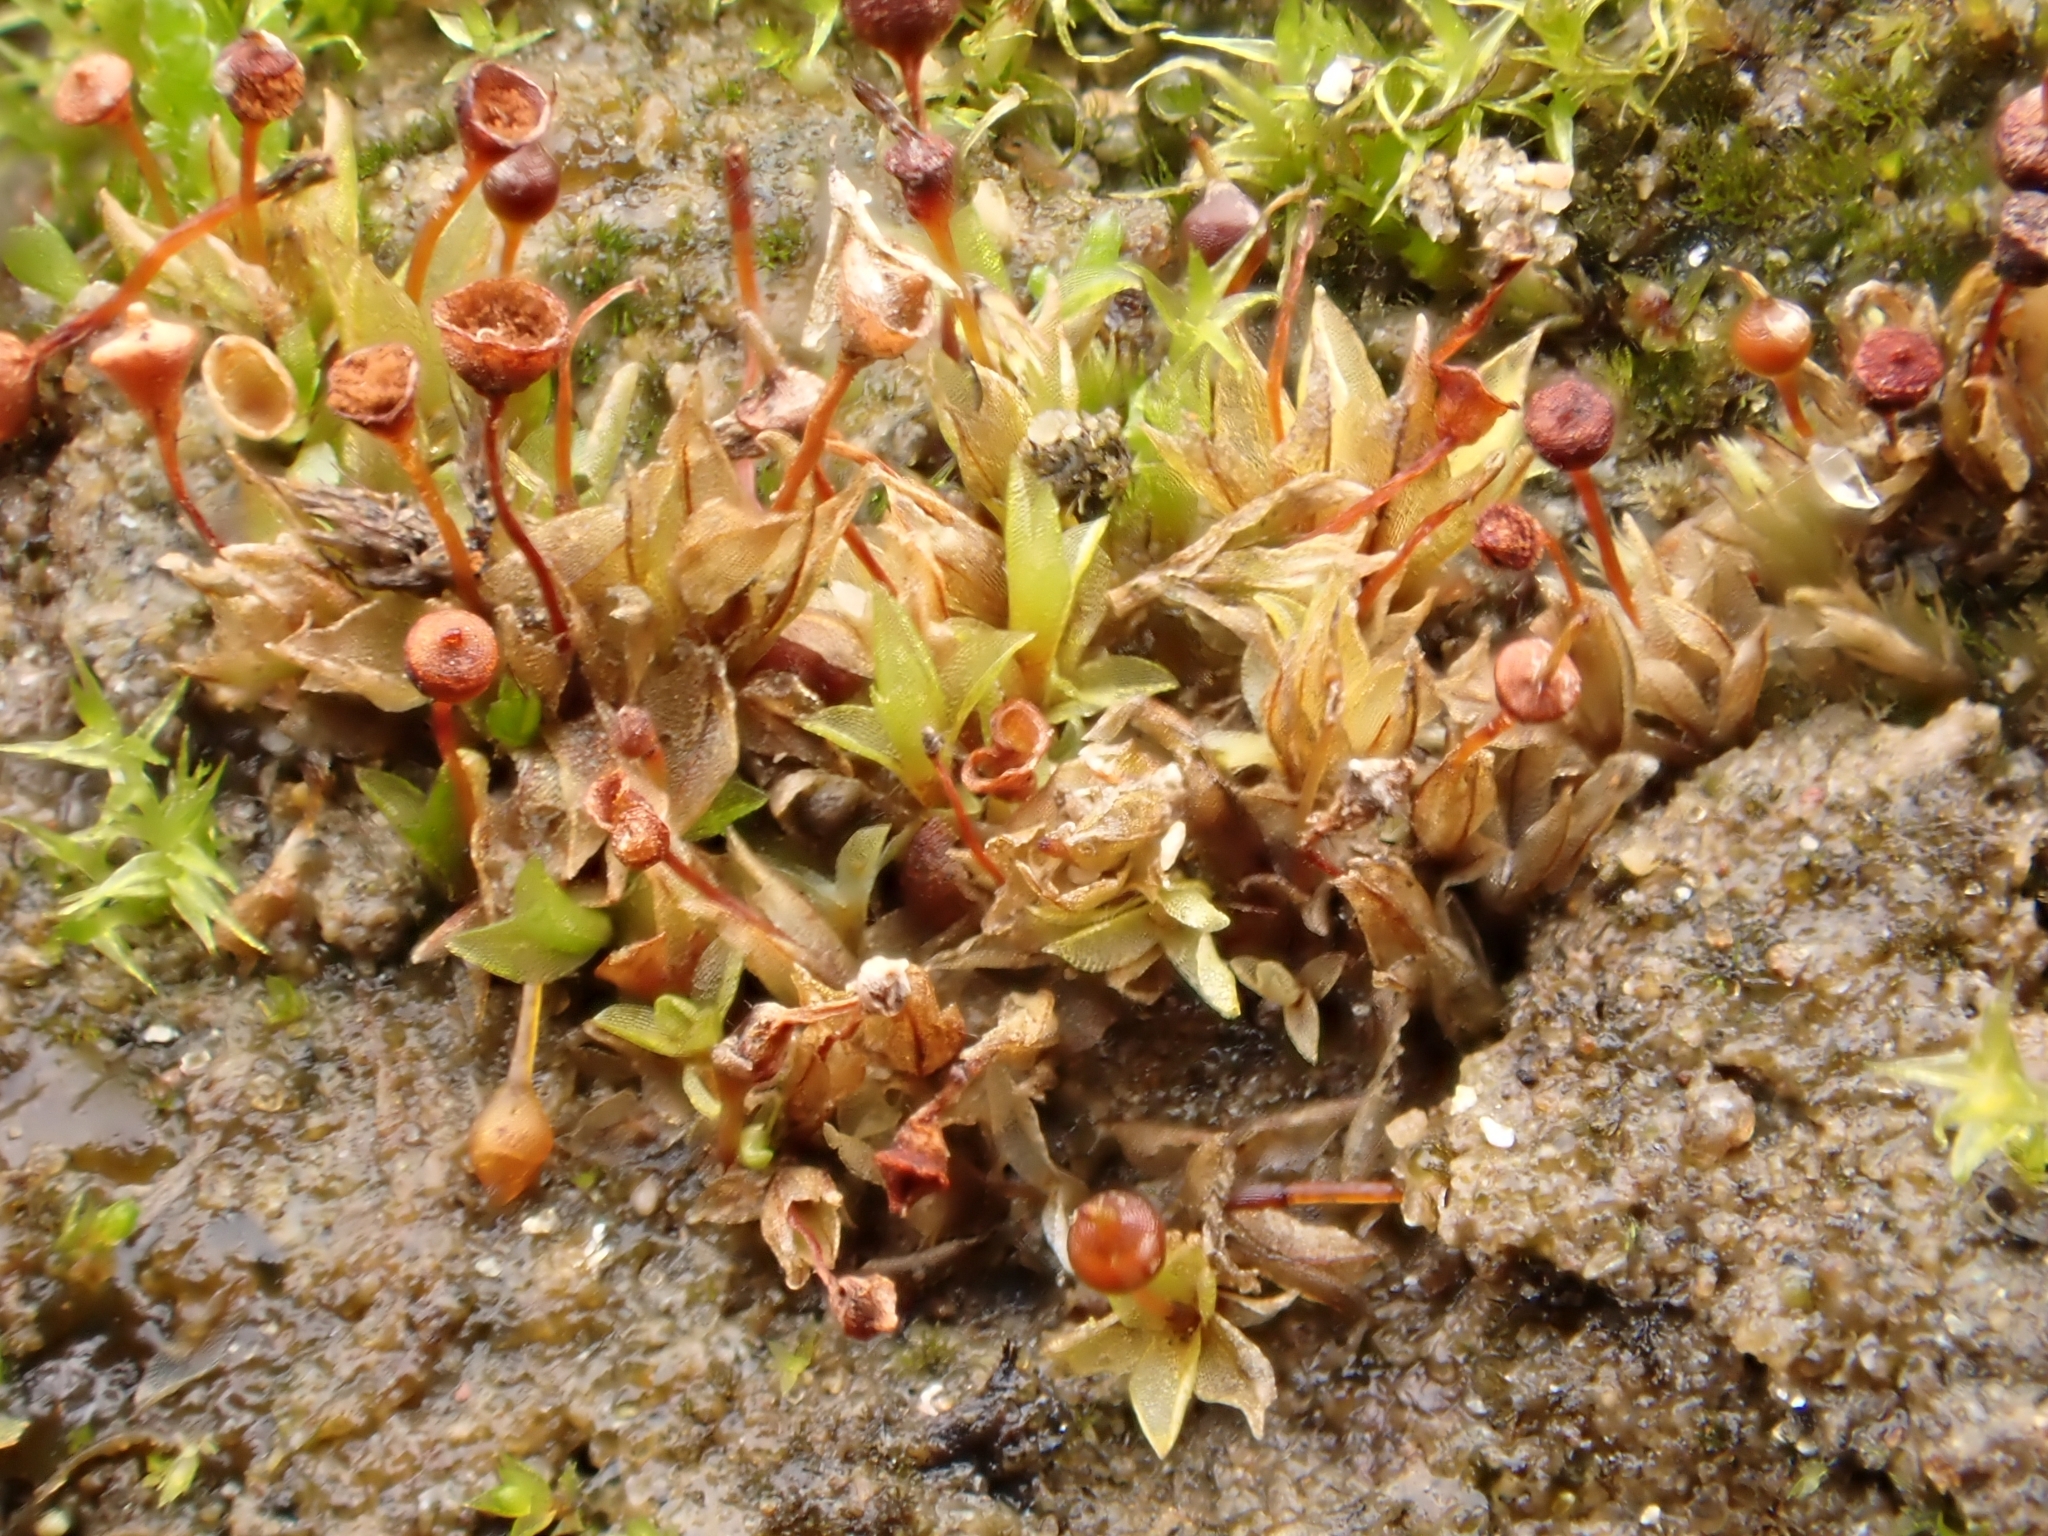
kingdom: Plantae
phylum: Bryophyta
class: Bryopsida
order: Funariales
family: Funariaceae
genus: Physcomitrium
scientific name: Physcomitrium pyriforme
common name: Common bladder-moss
